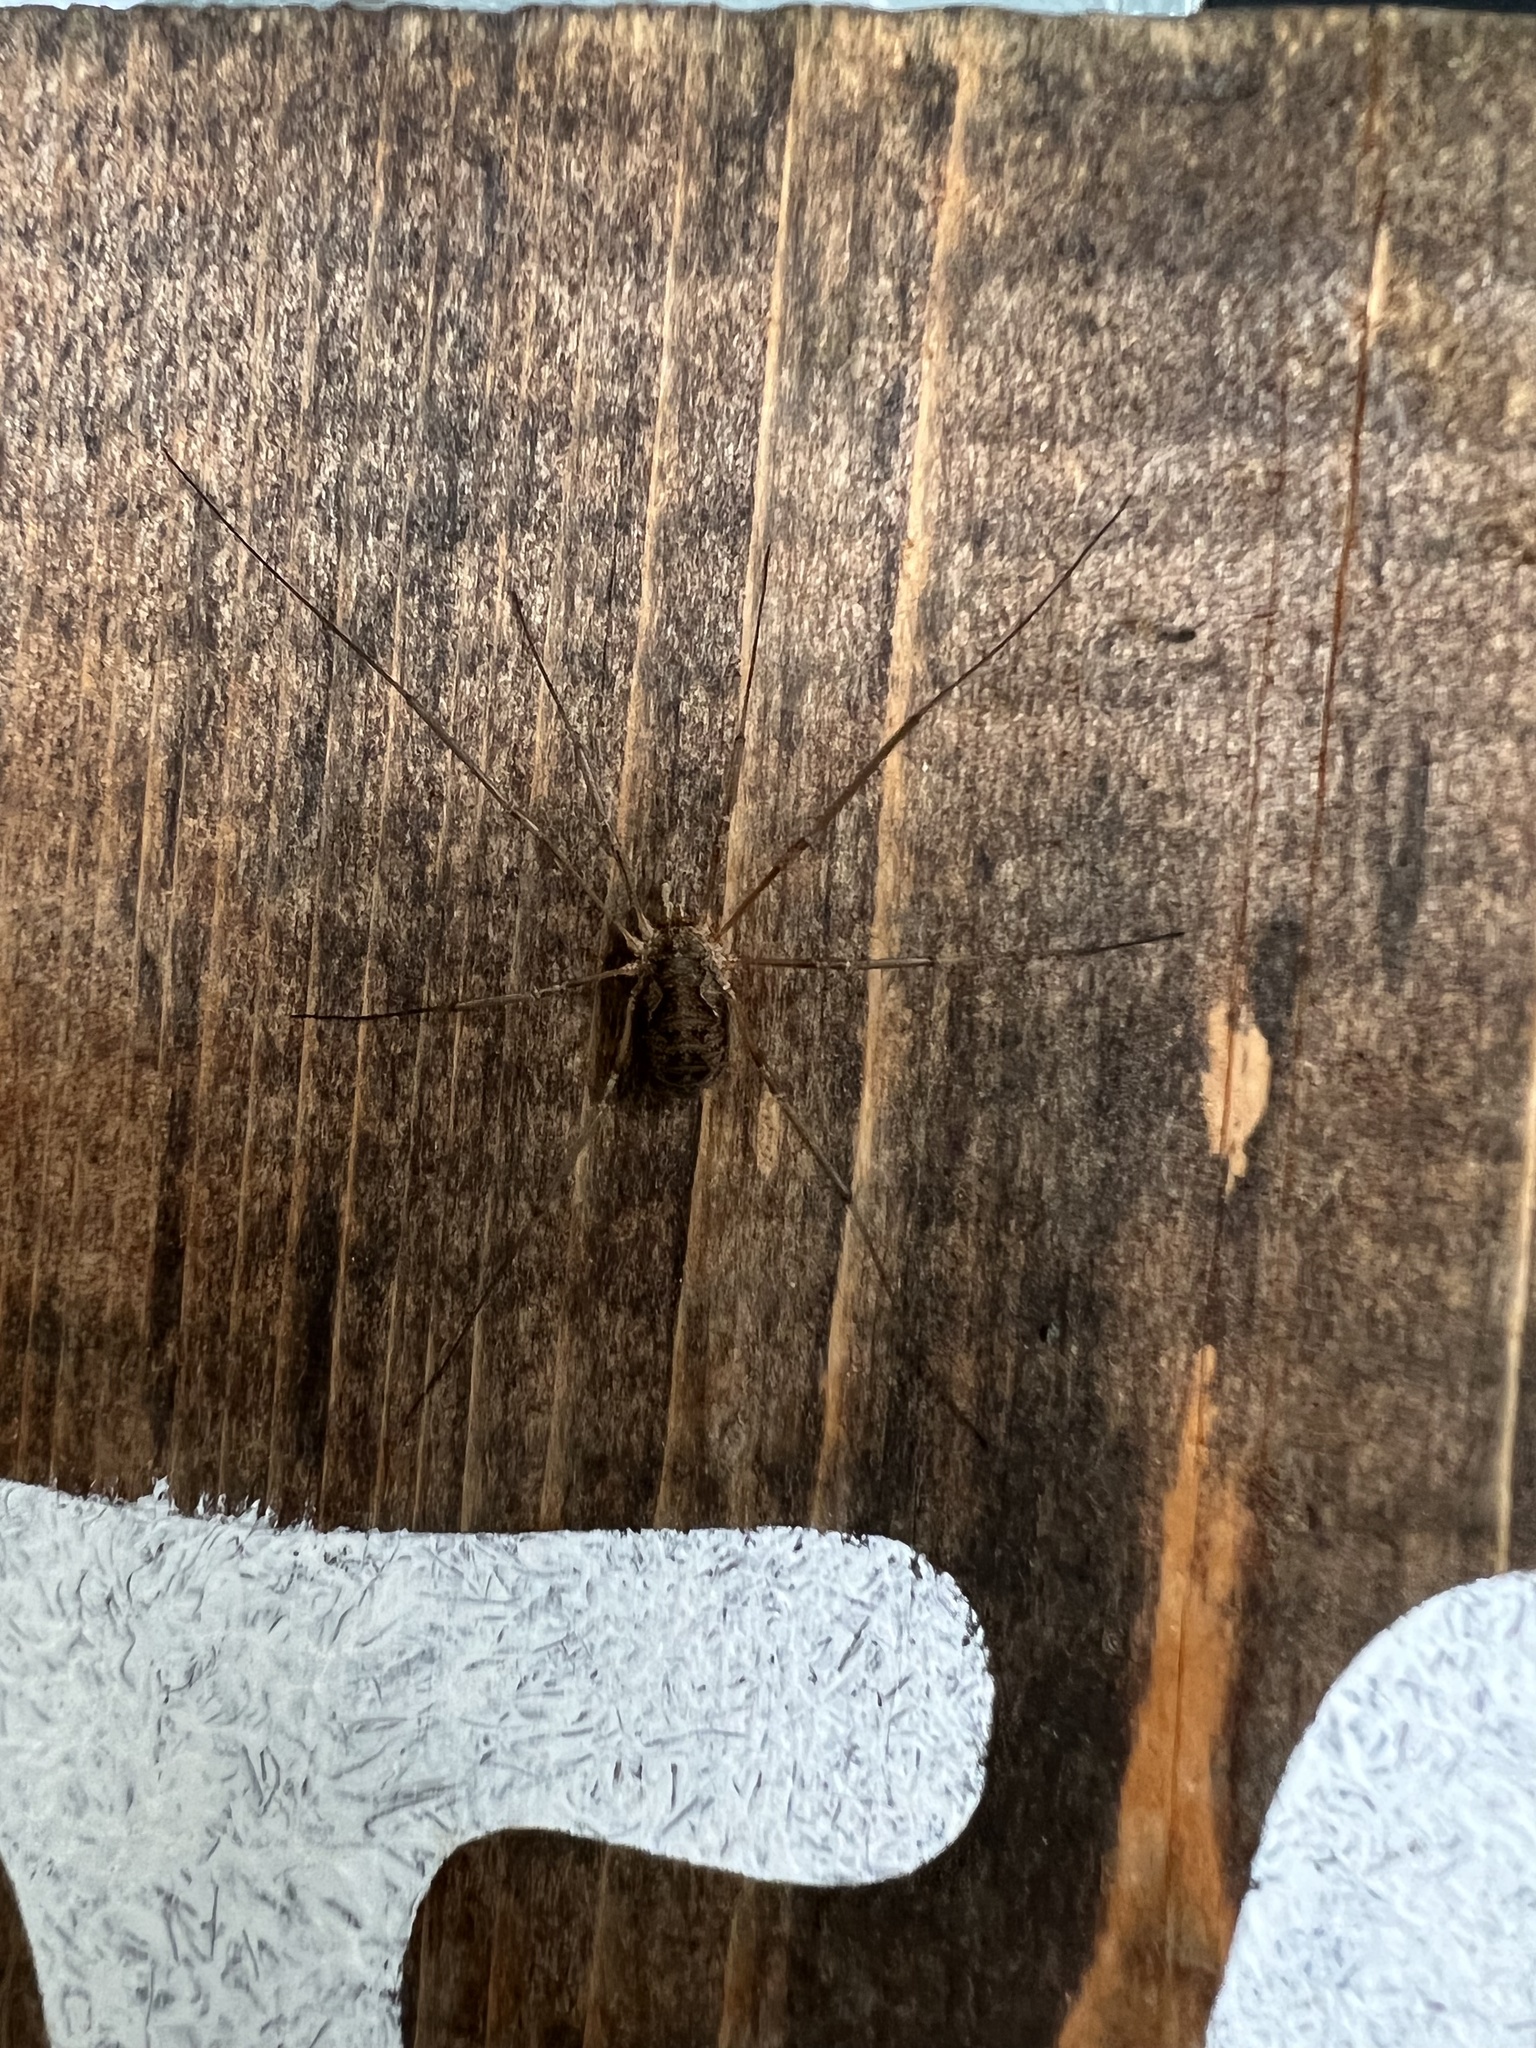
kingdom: Animalia
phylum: Arthropoda
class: Arachnida
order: Opiliones
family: Phalangiidae
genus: Phalangium
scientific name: Phalangium opilio
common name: Daddy longleg
